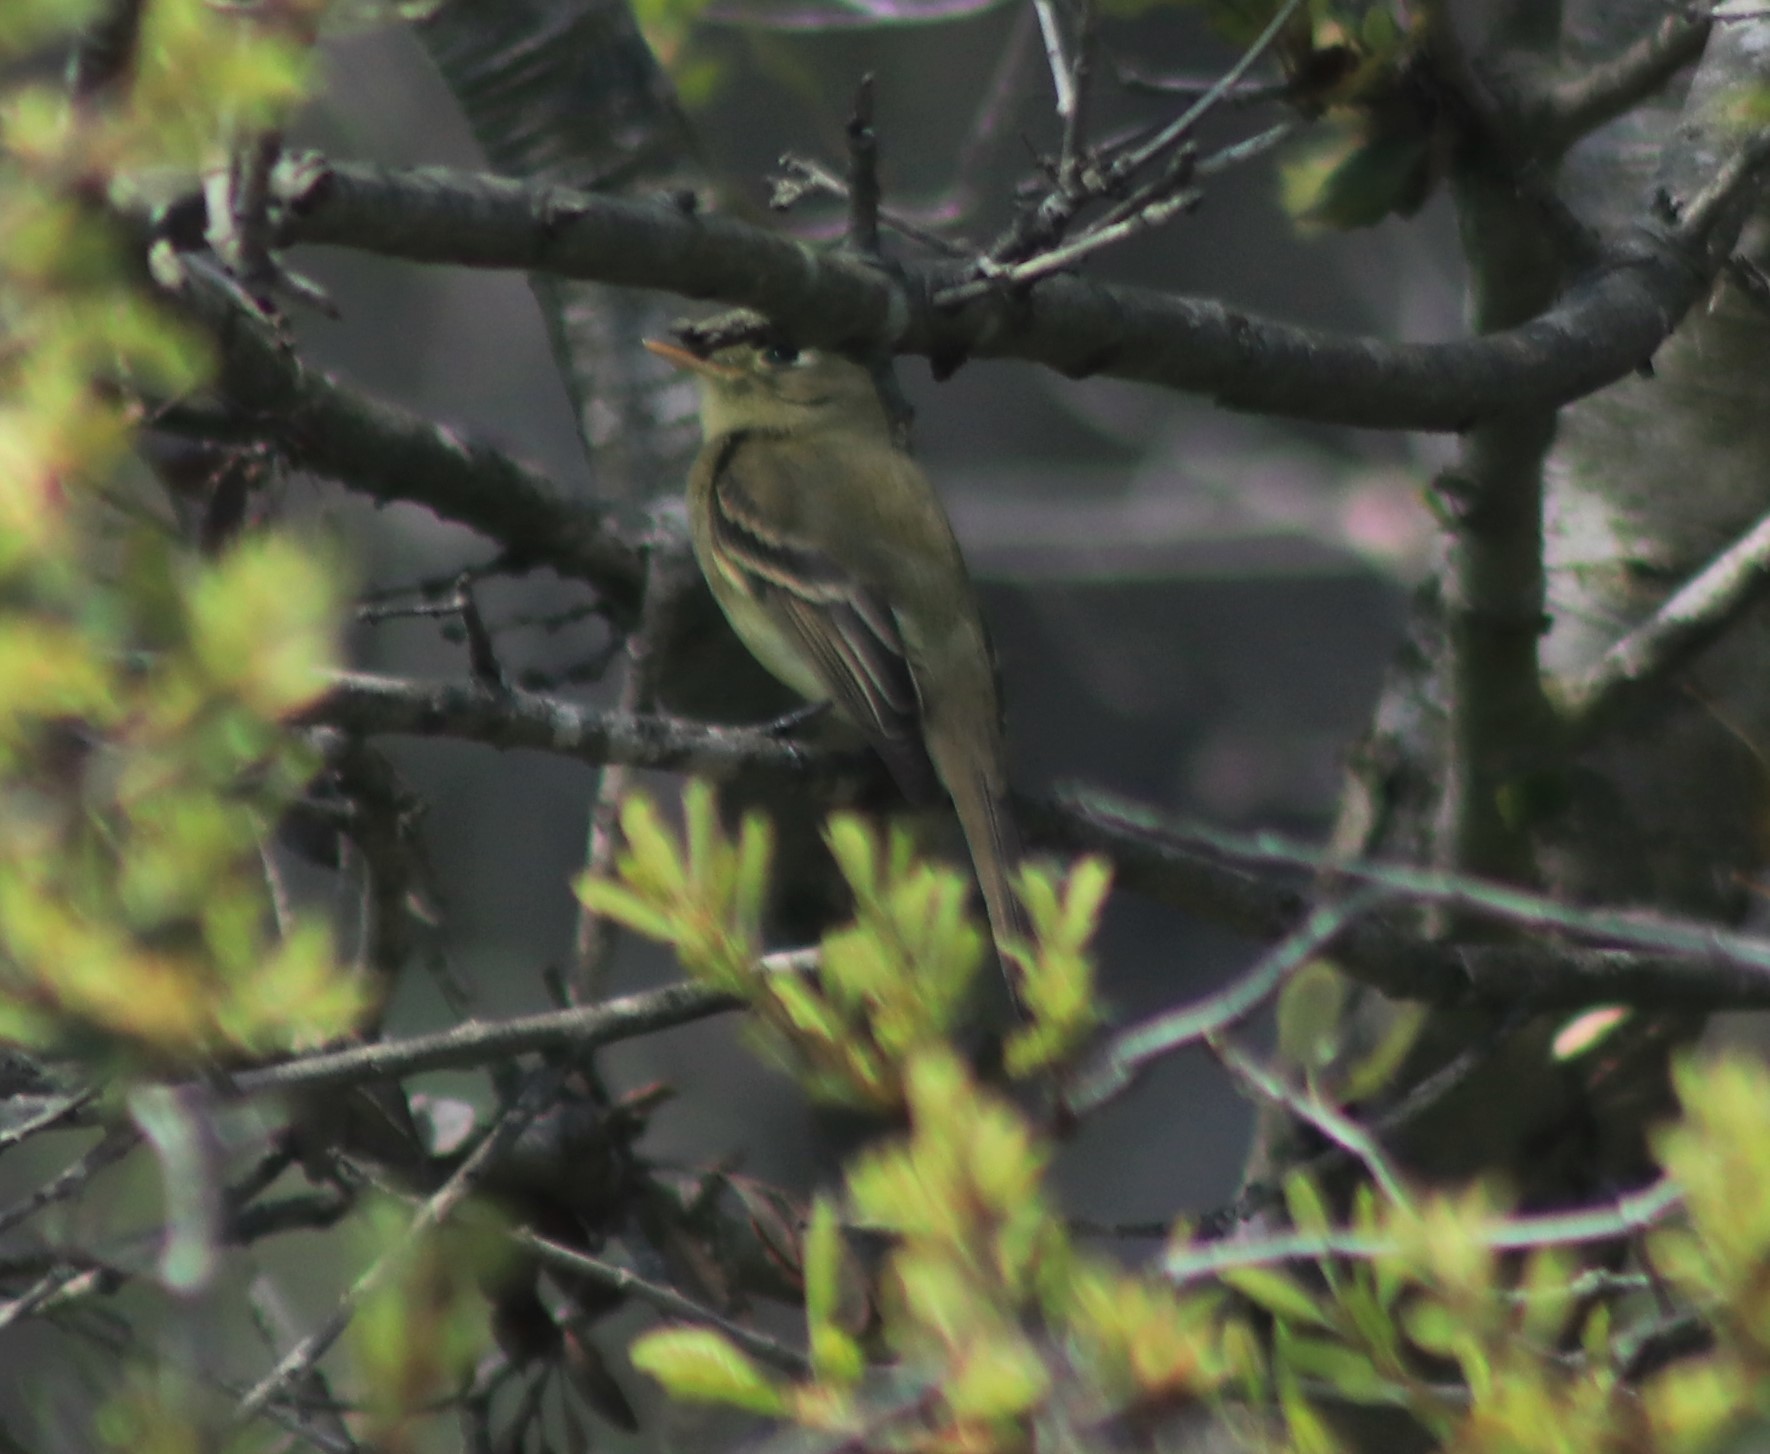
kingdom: Animalia
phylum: Chordata
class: Aves
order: Passeriformes
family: Tyrannidae
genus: Empidonax
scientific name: Empidonax difficilis
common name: Pacific-slope flycatcher
